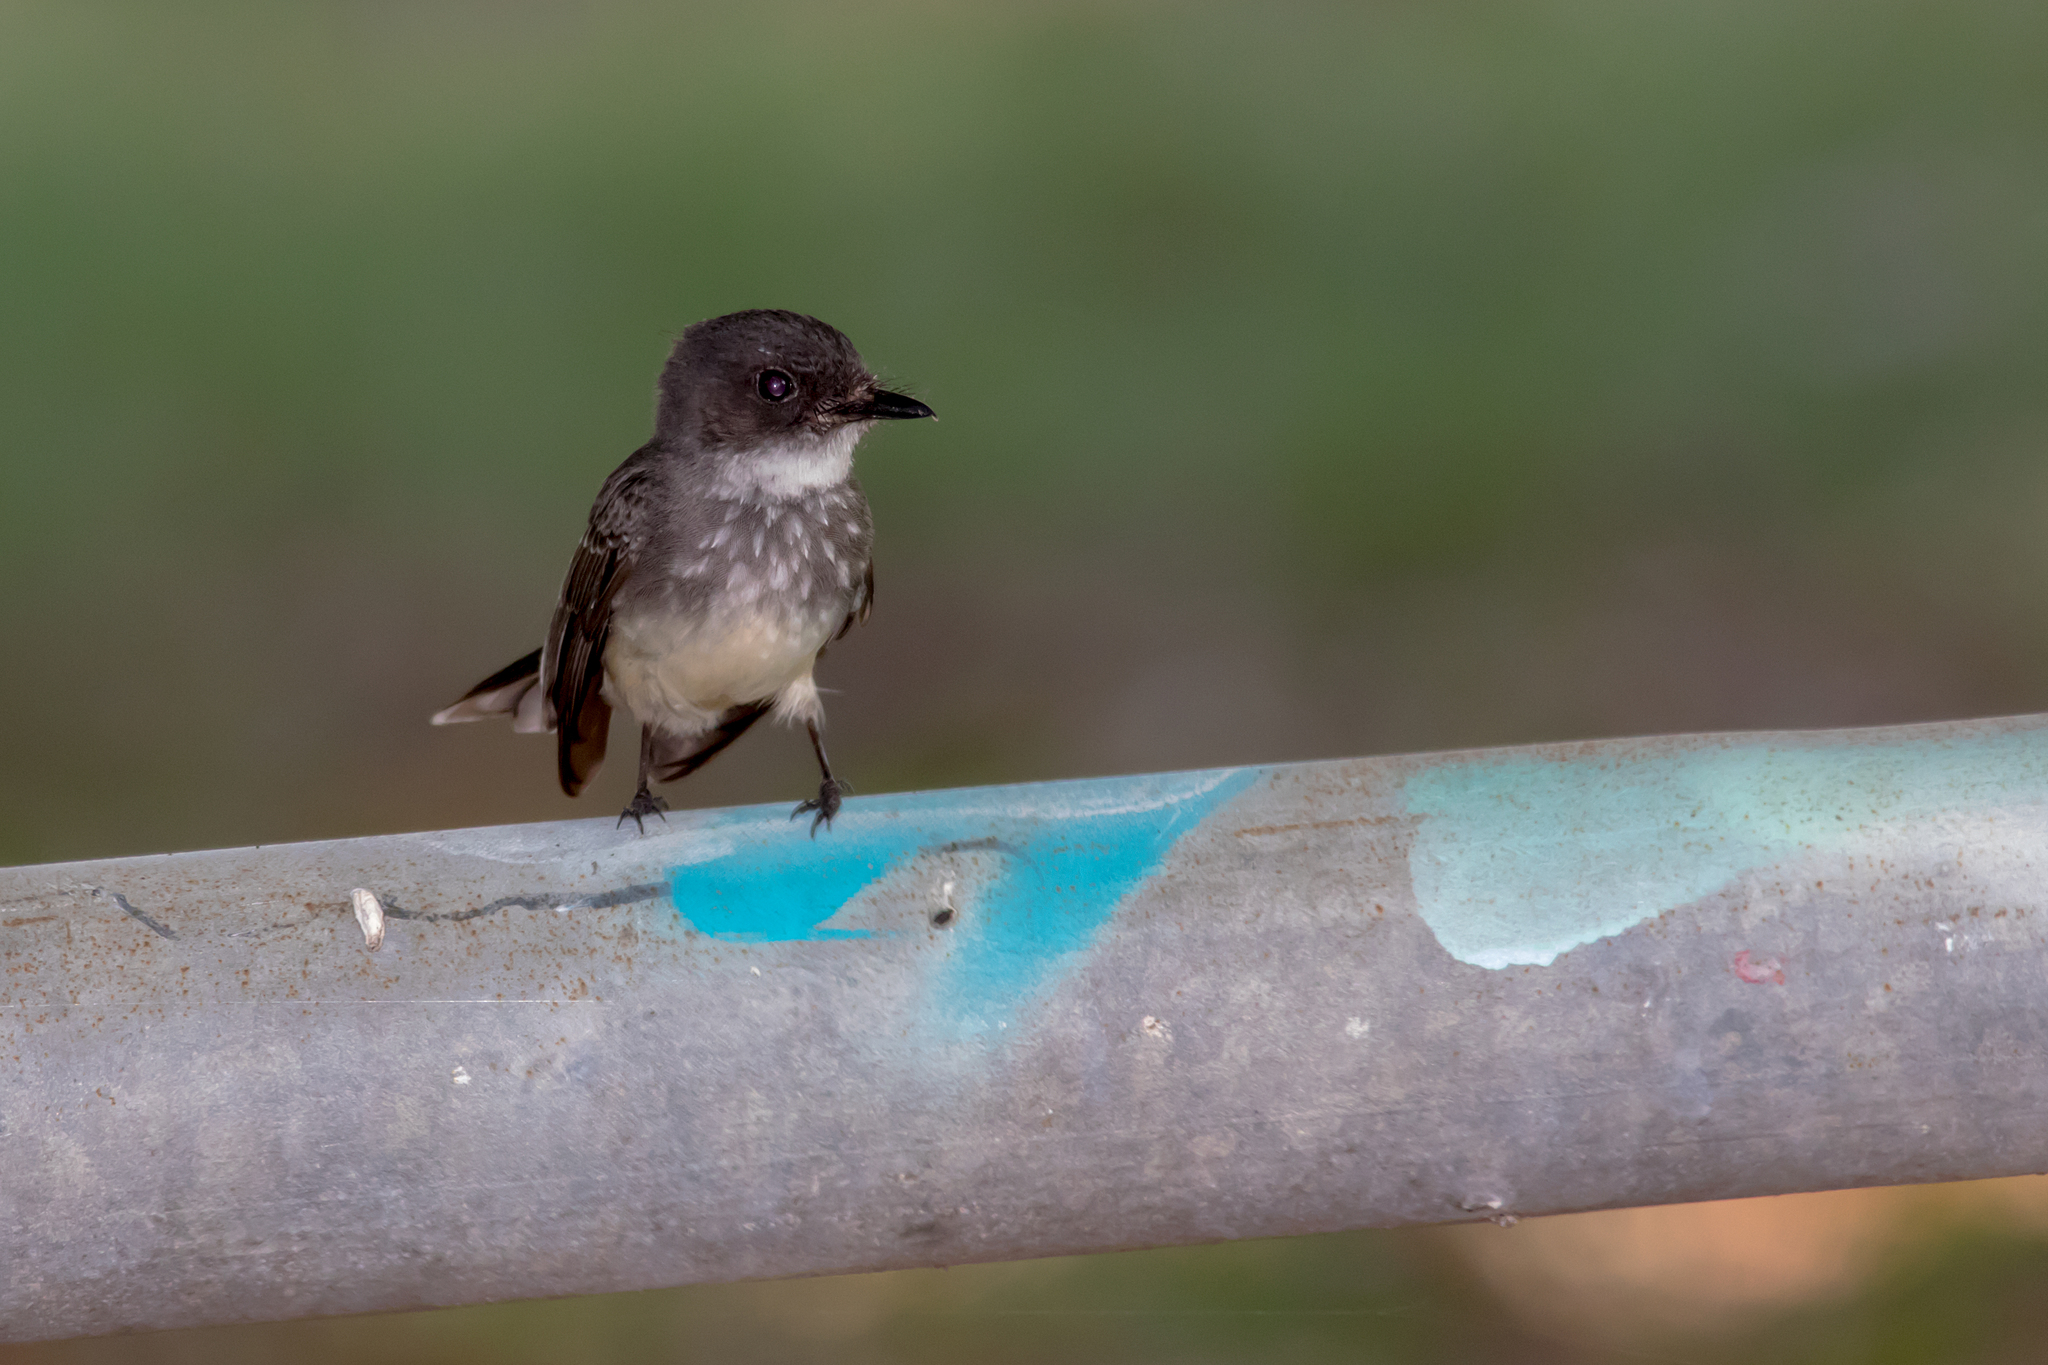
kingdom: Animalia
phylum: Chordata
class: Aves
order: Passeriformes
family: Rhipiduridae
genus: Rhipidura
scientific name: Rhipidura rufiventris
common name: Northern fantail
